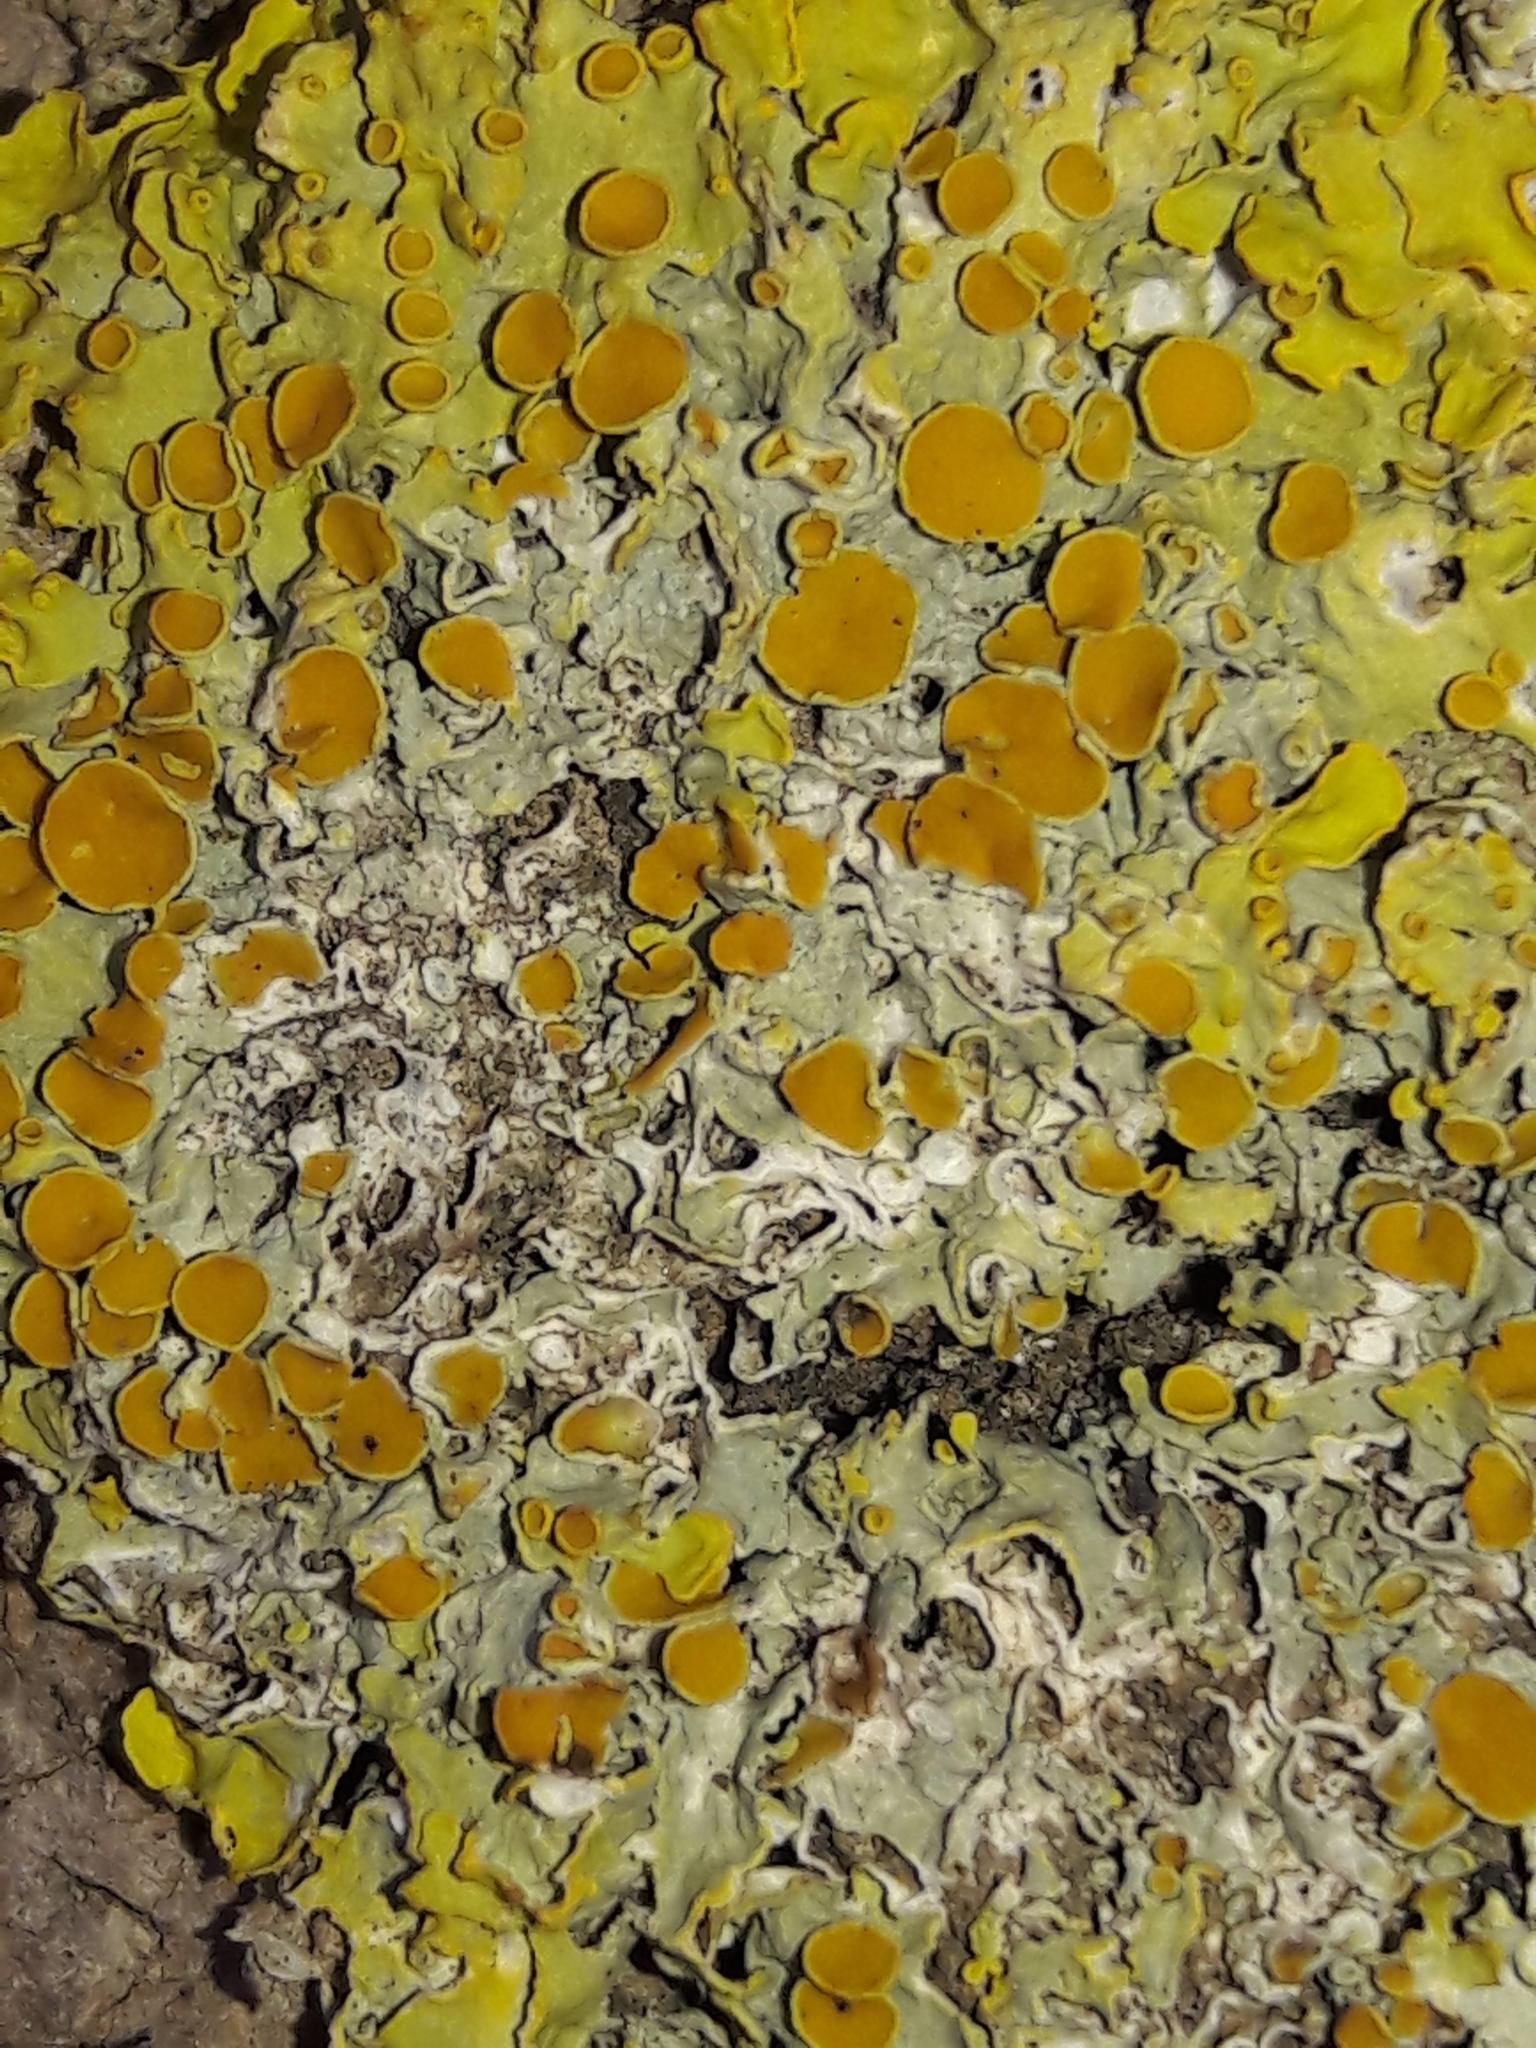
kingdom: Fungi
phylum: Ascomycota
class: Lecanoromycetes
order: Teloschistales
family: Teloschistaceae
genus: Xanthoria
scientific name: Xanthoria parietina
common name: Common orange lichen
